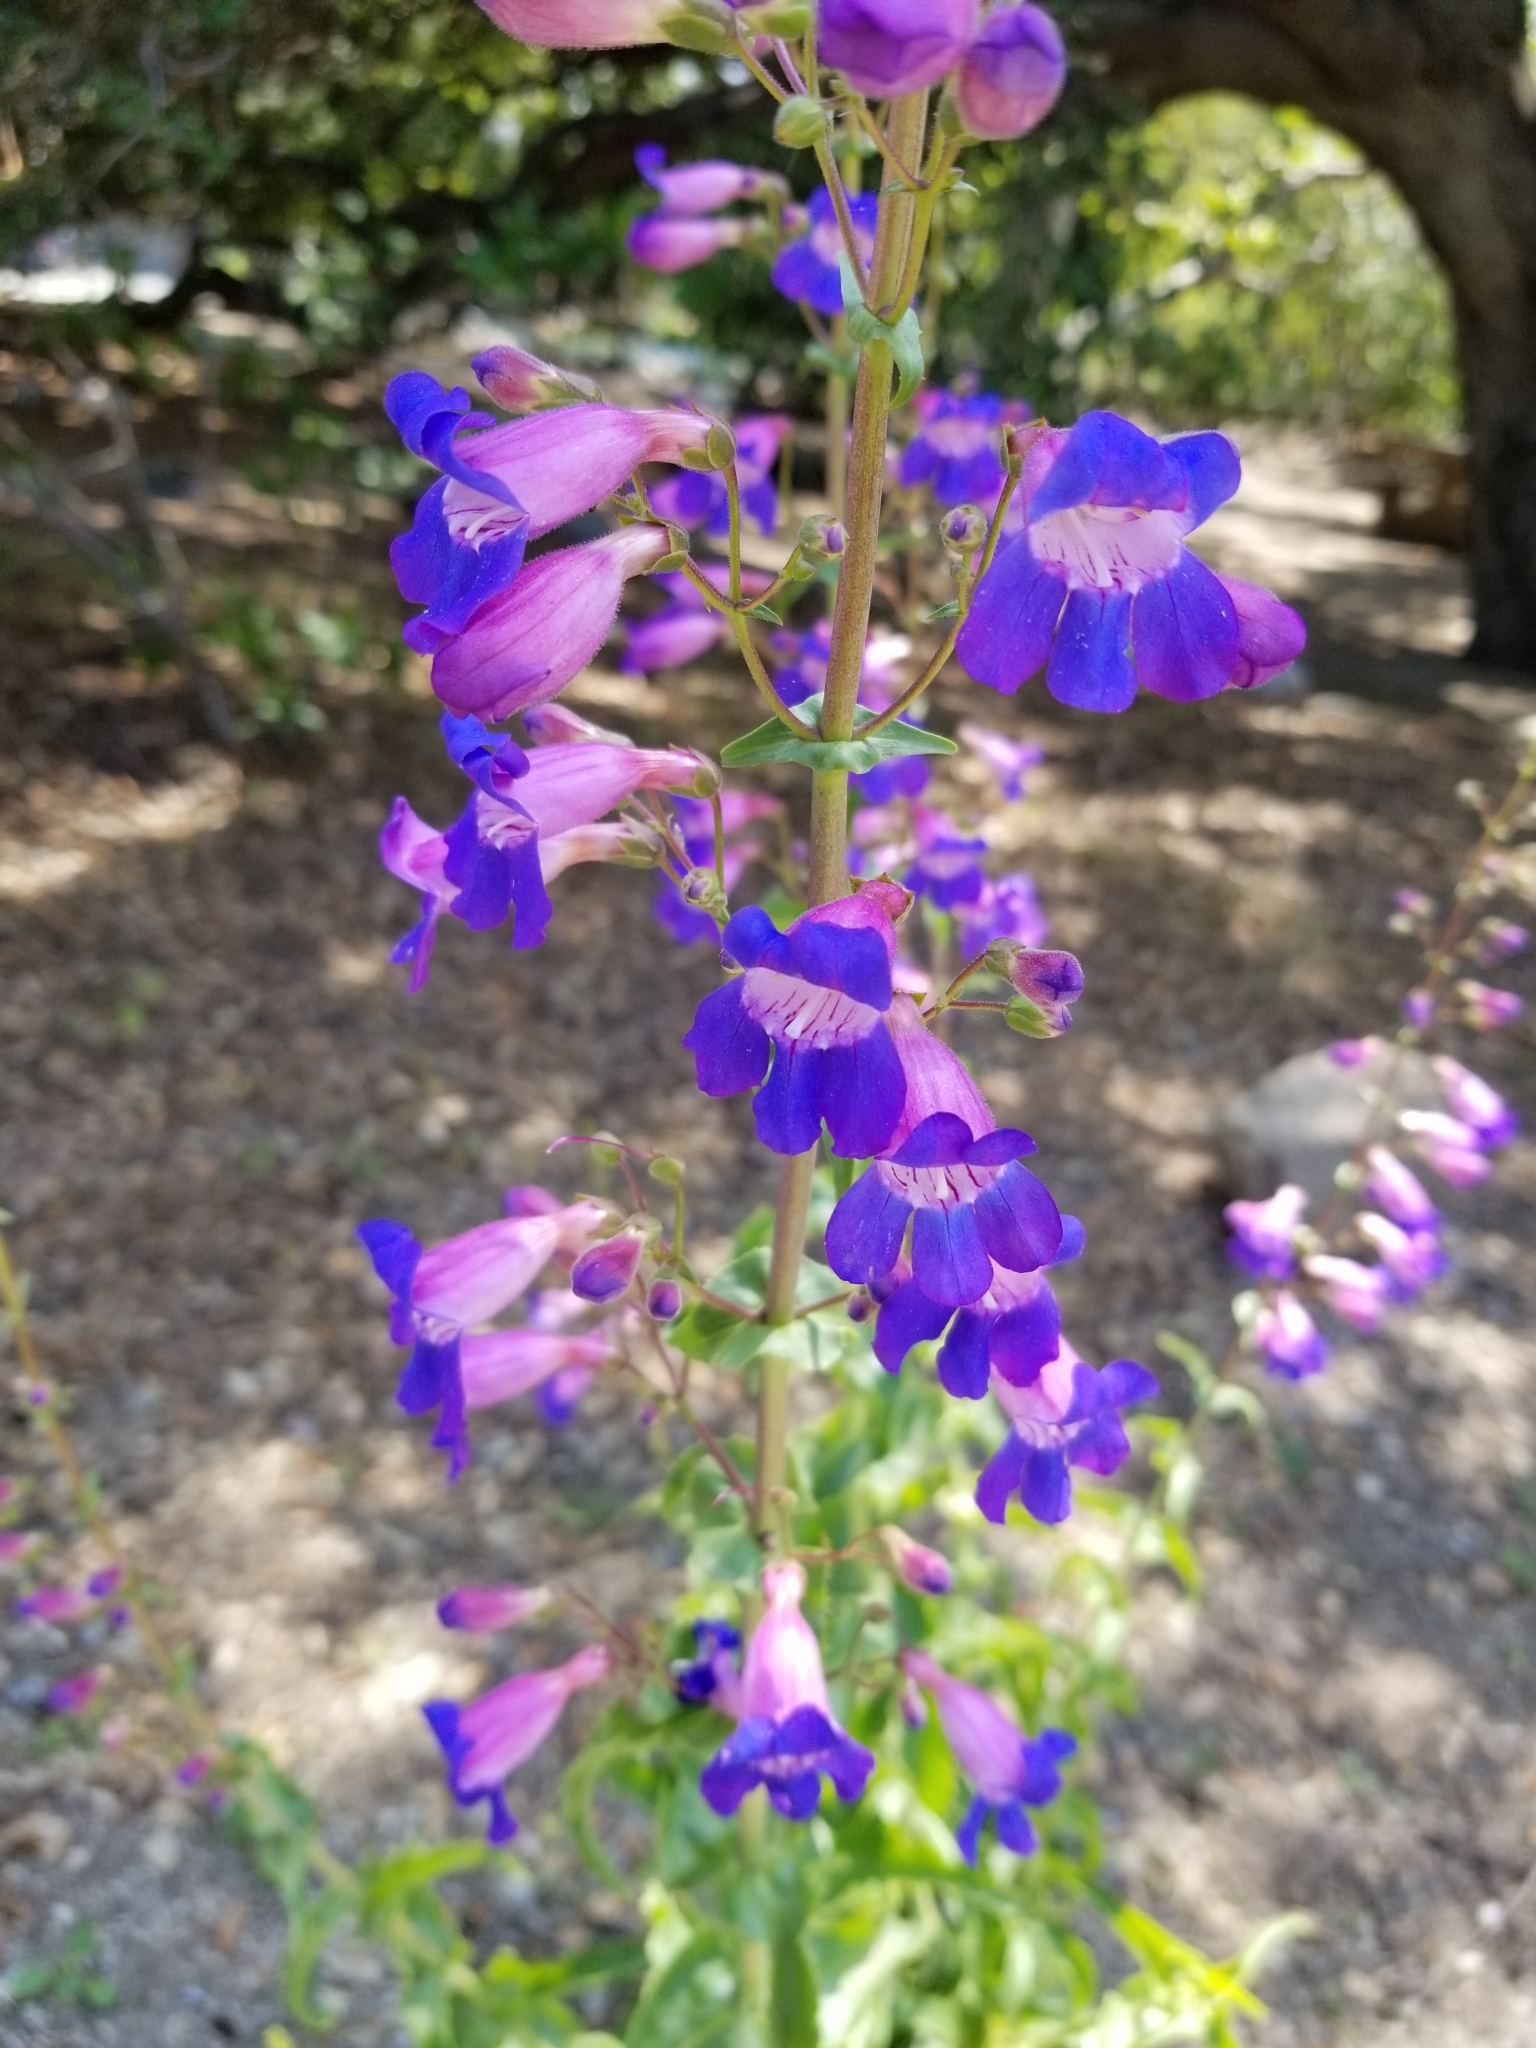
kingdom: Plantae
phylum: Tracheophyta
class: Magnoliopsida
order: Lamiales
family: Plantaginaceae
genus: Penstemon
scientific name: Penstemon spectabilis
